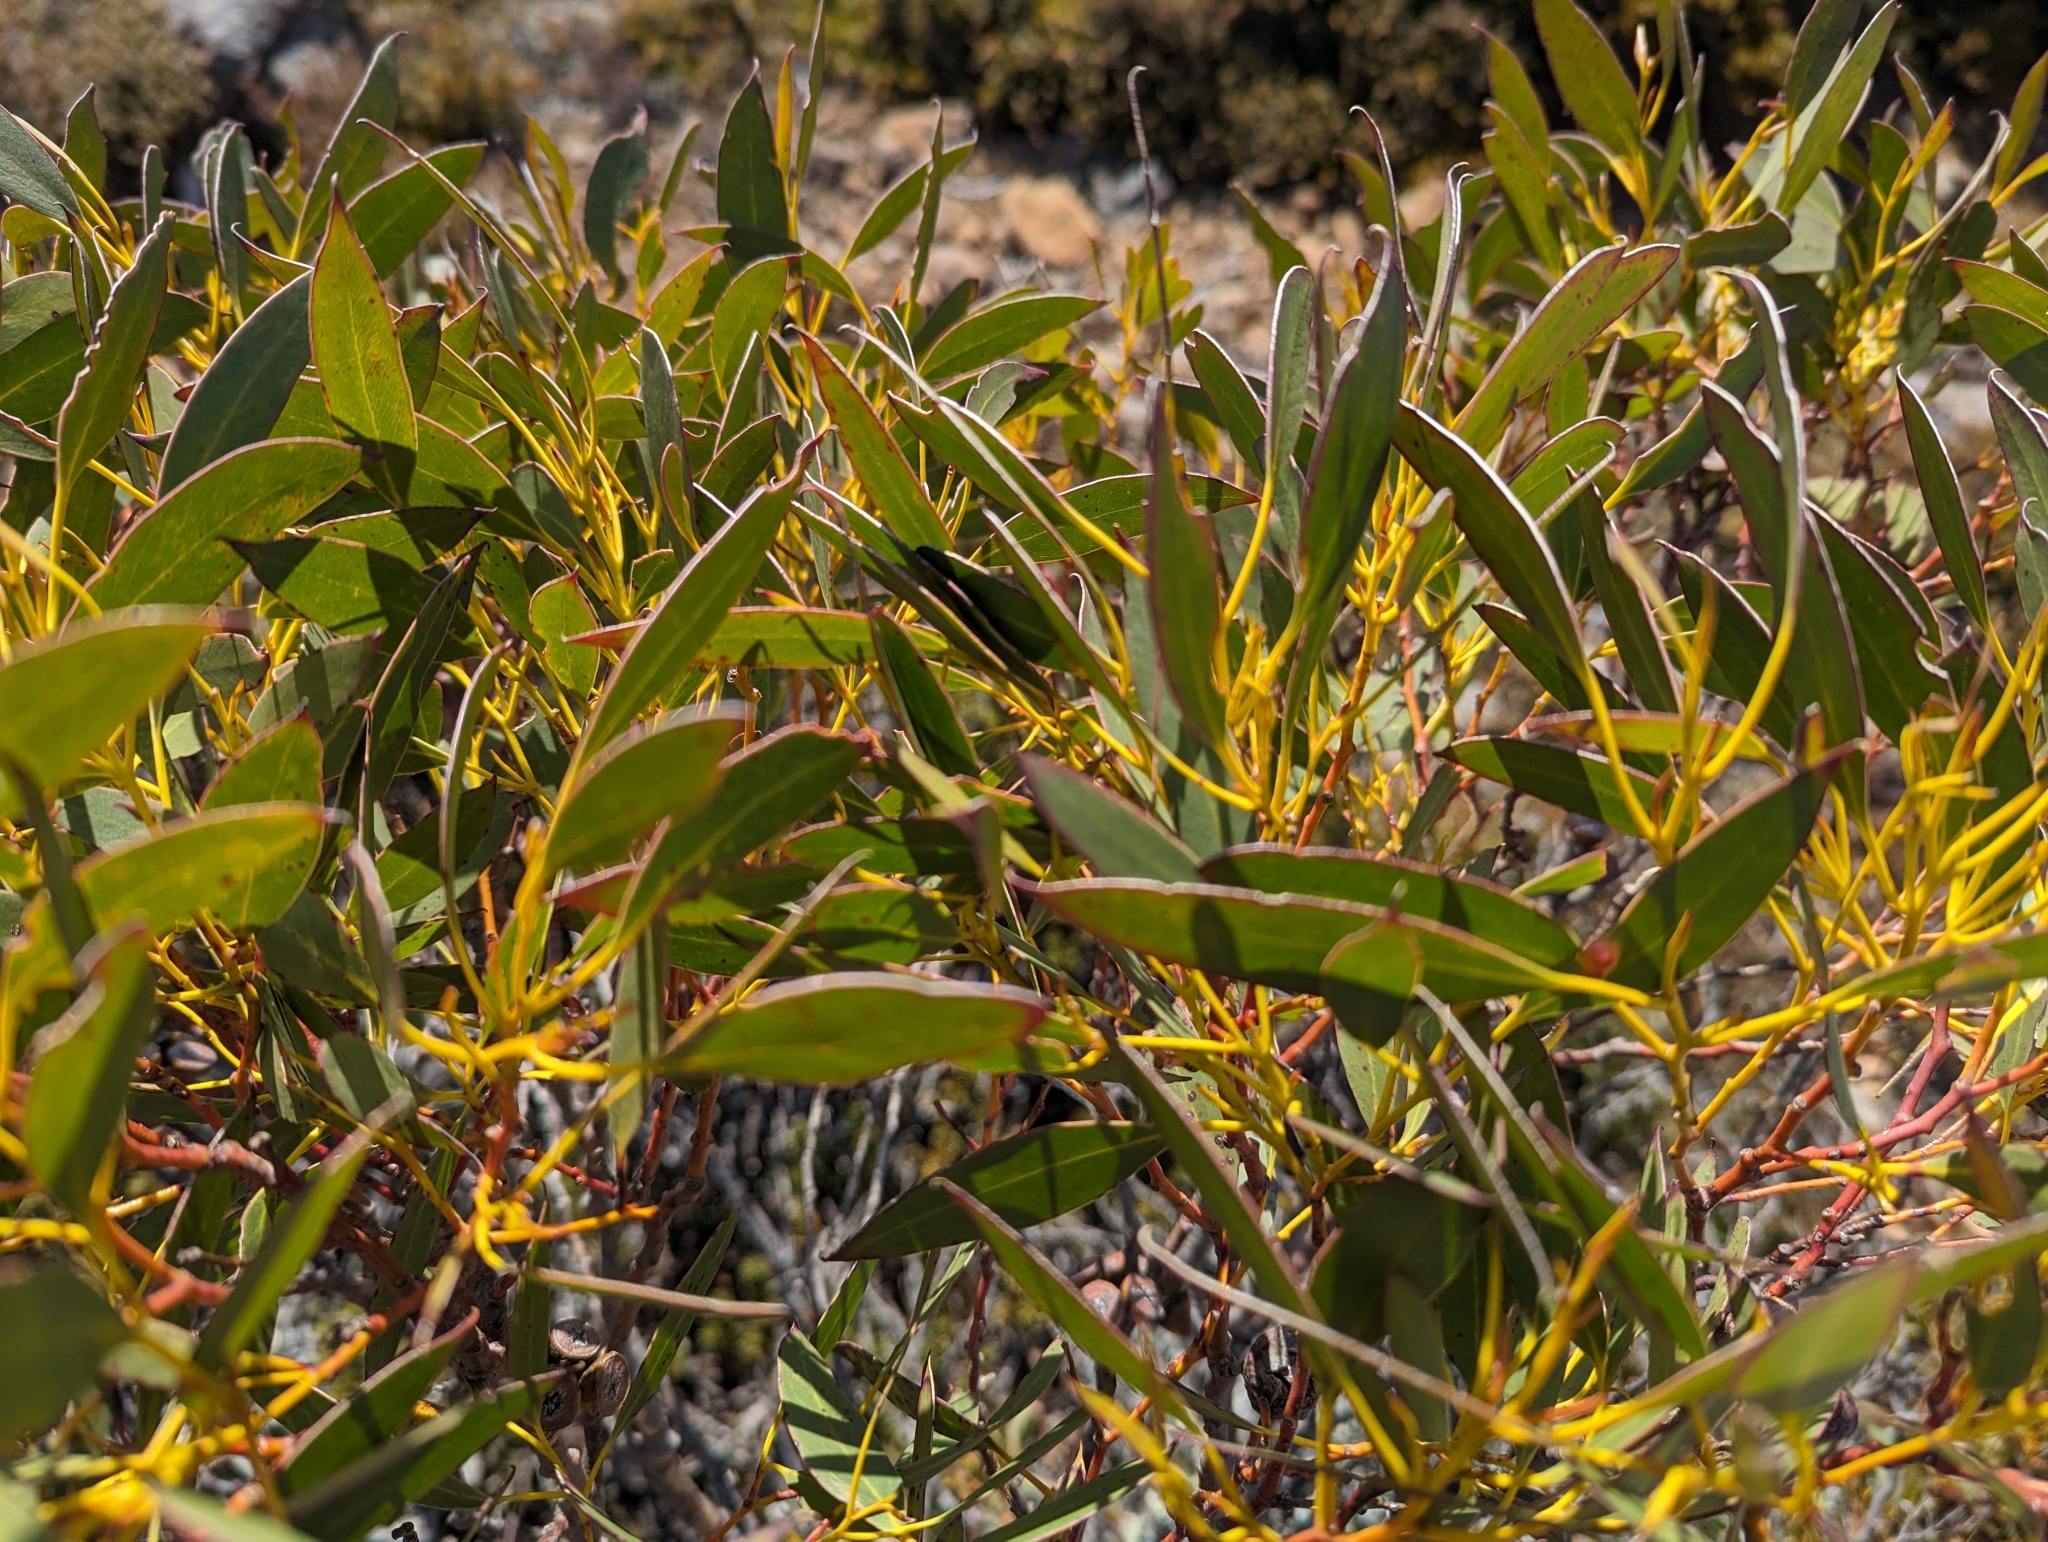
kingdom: Plantae
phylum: Tracheophyta
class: Magnoliopsida
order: Myrtales
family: Myrtaceae
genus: Eucalyptus
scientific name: Eucalyptus coccifera
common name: Tasmanian snow-gum
